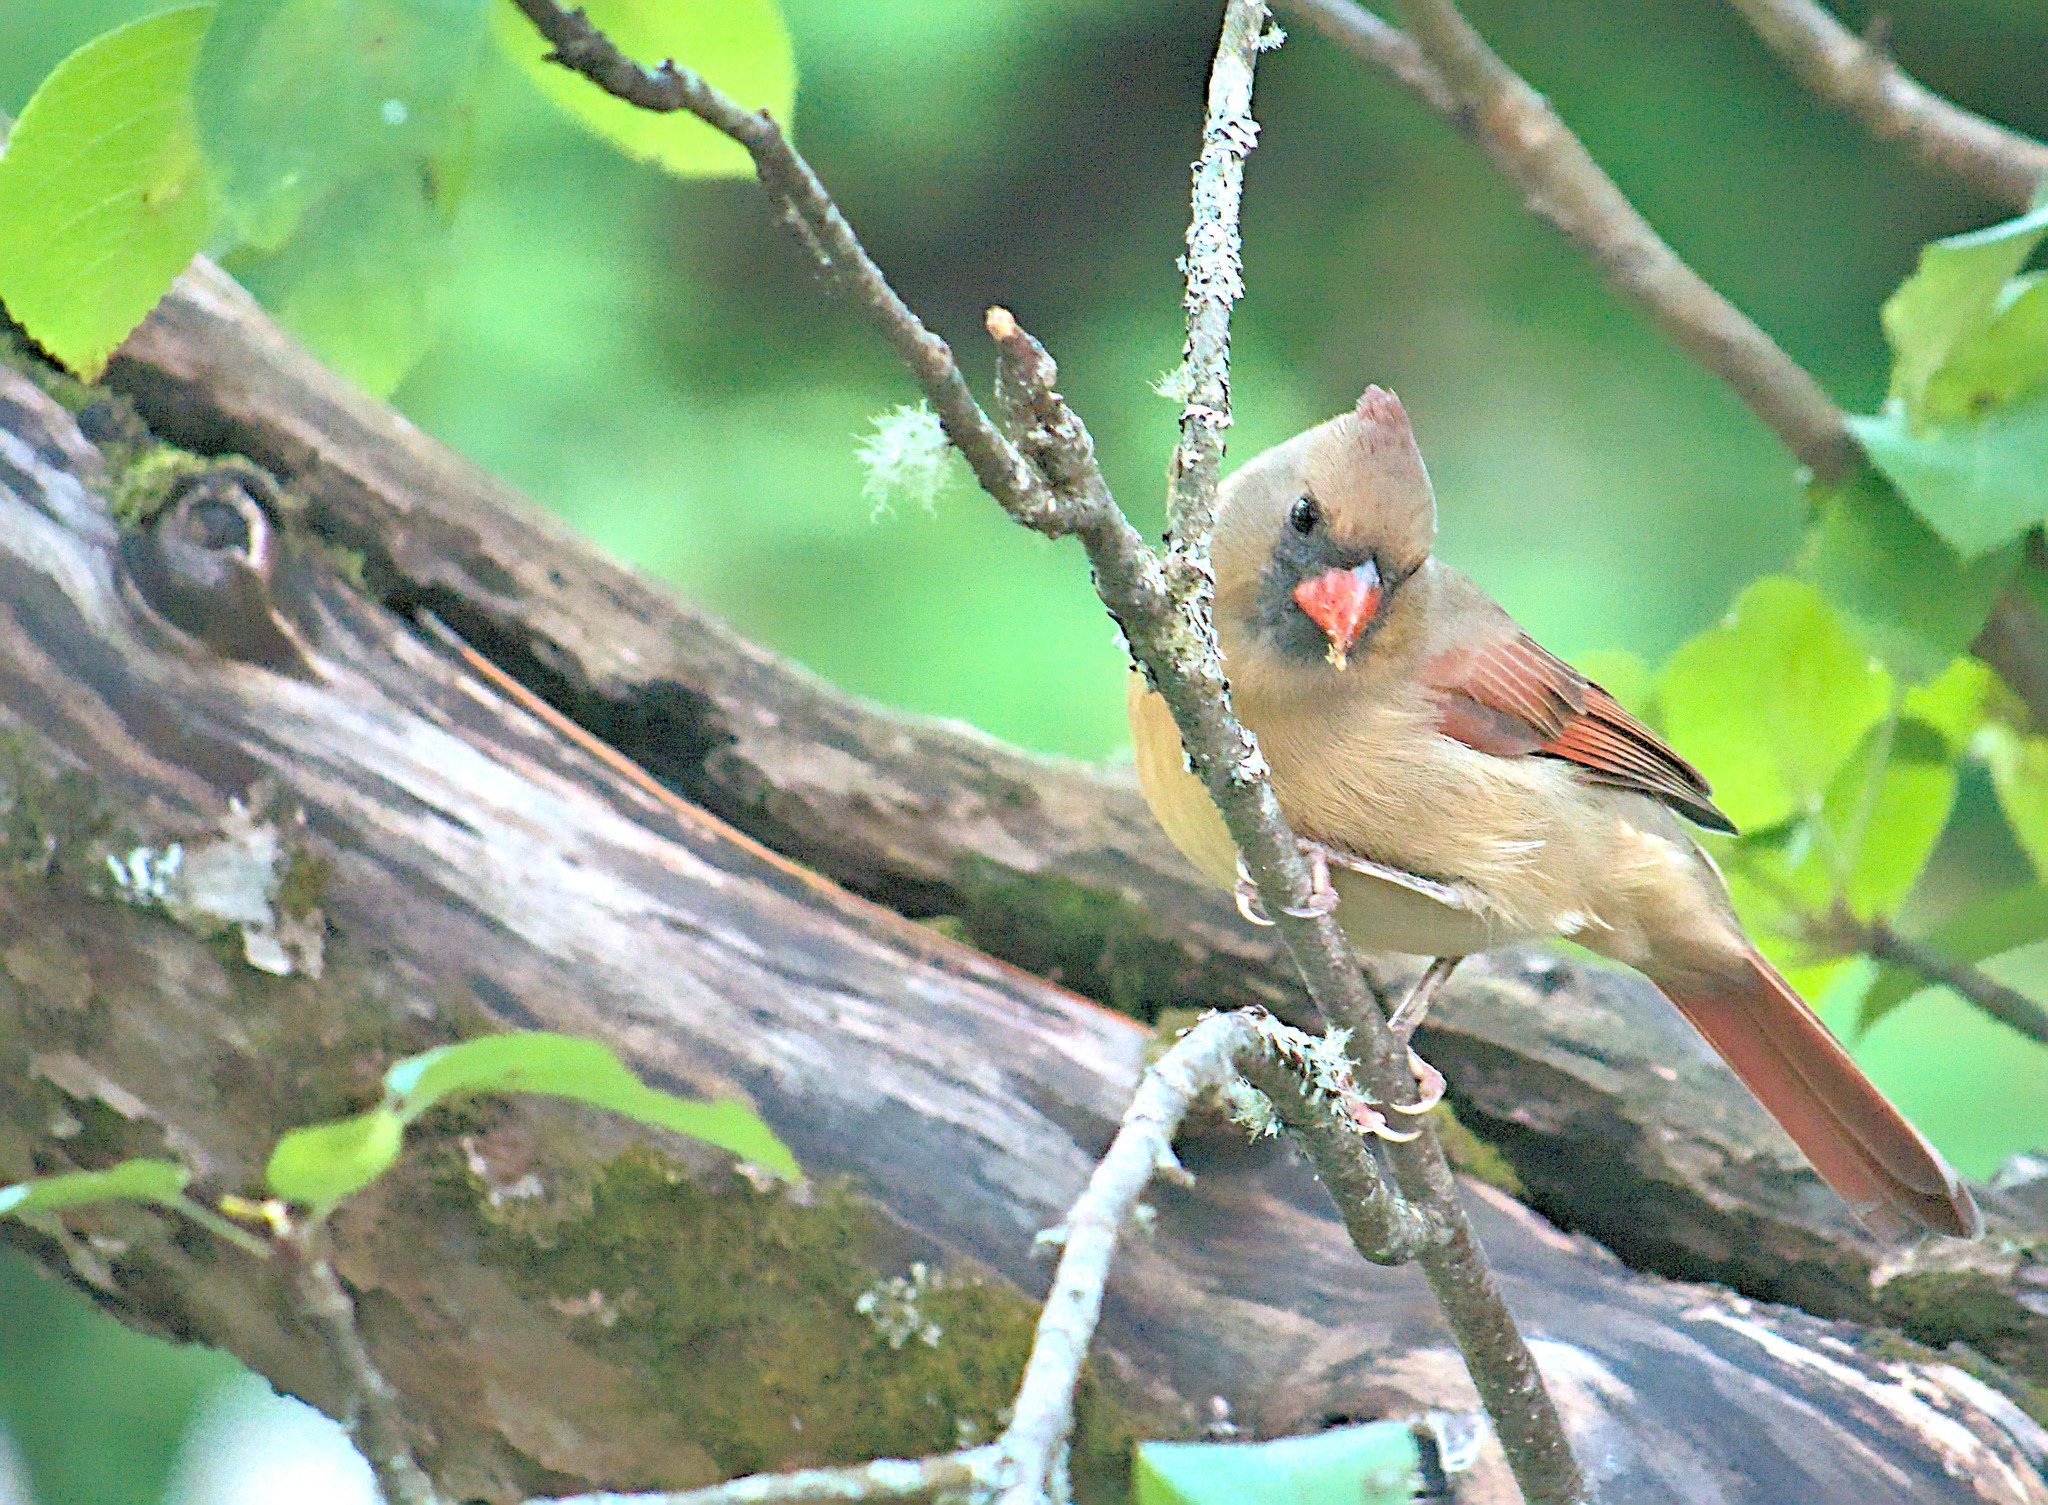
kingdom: Animalia
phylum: Chordata
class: Aves
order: Passeriformes
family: Cardinalidae
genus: Cardinalis
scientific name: Cardinalis cardinalis
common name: Northern cardinal
